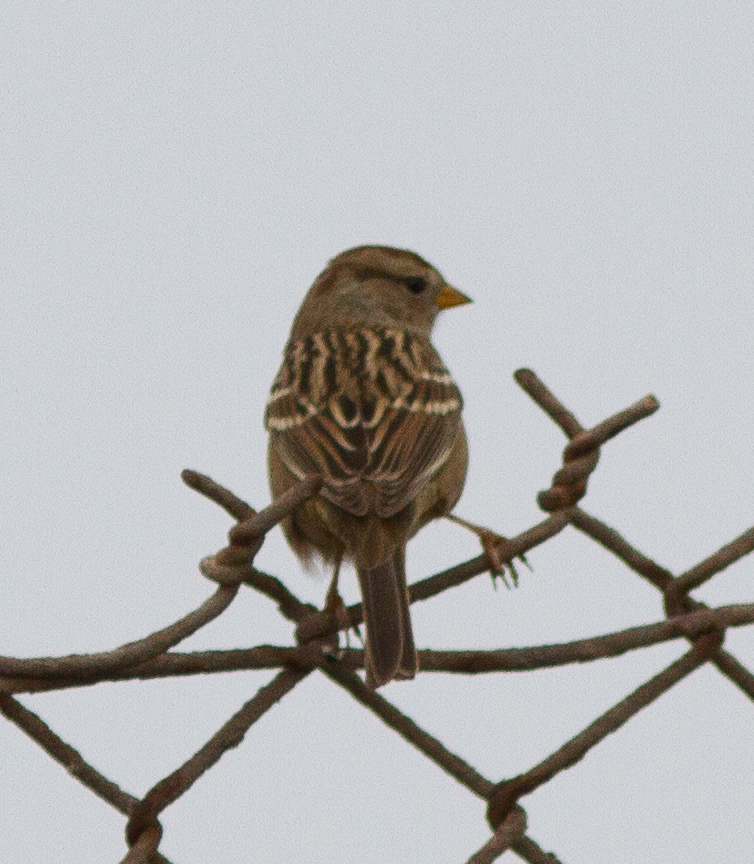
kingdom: Animalia
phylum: Chordata
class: Aves
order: Passeriformes
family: Passerellidae
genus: Zonotrichia
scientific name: Zonotrichia leucophrys
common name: White-crowned sparrow
